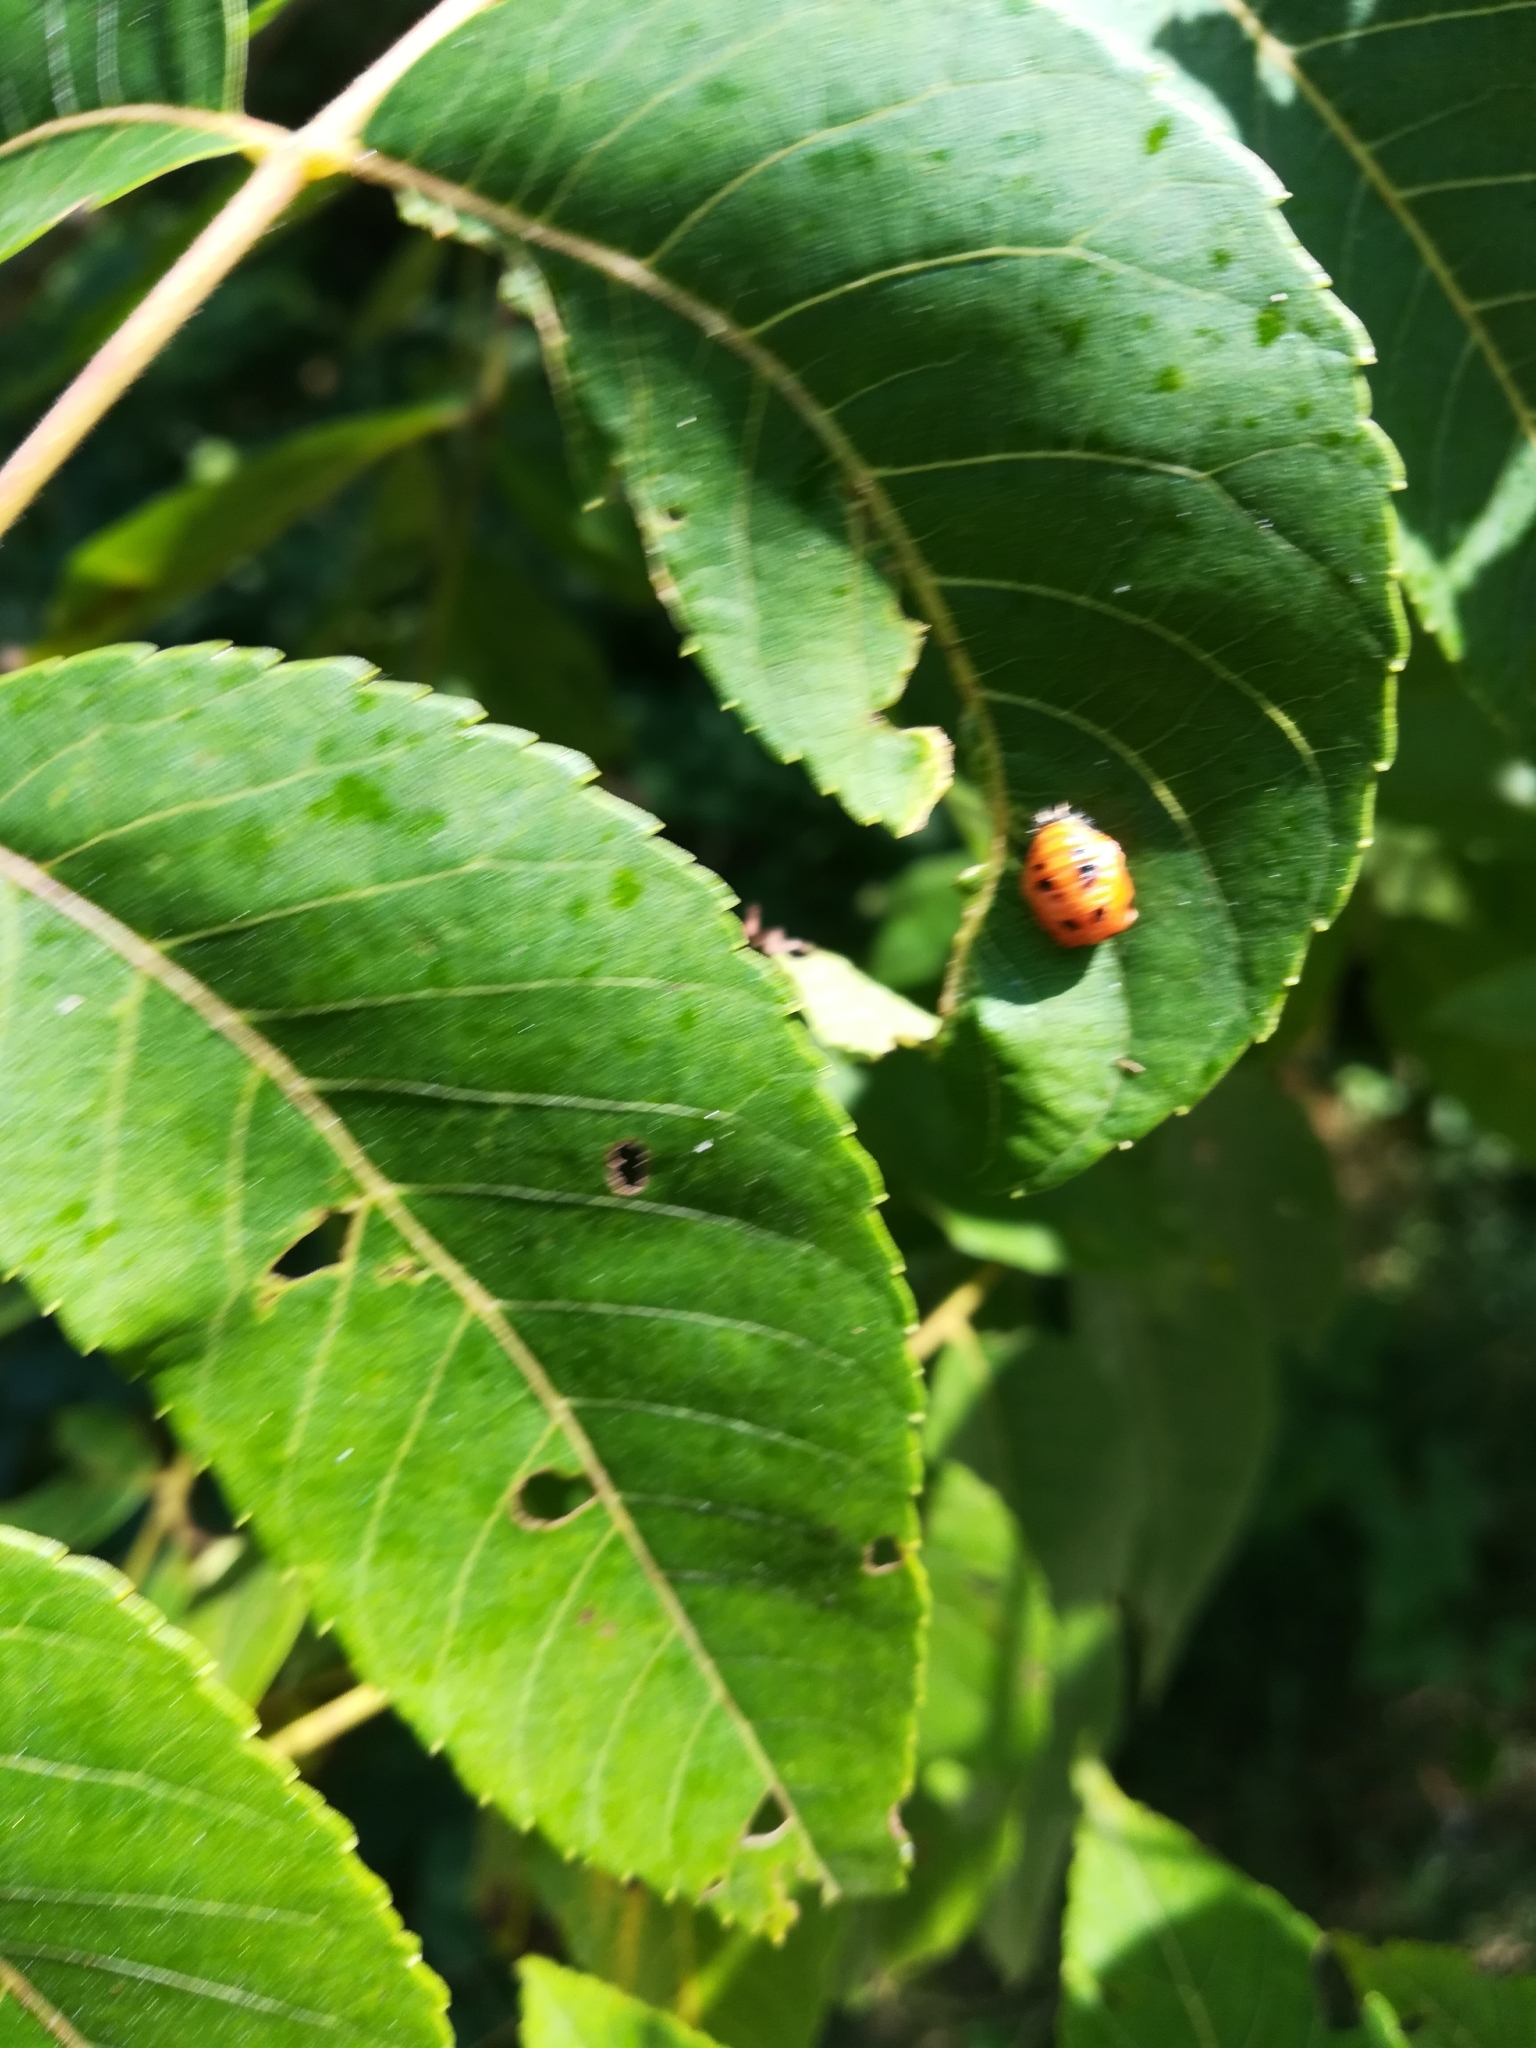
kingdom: Animalia
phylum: Arthropoda
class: Insecta
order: Coleoptera
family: Coccinellidae
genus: Harmonia
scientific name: Harmonia axyridis
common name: Harlequin ladybird
